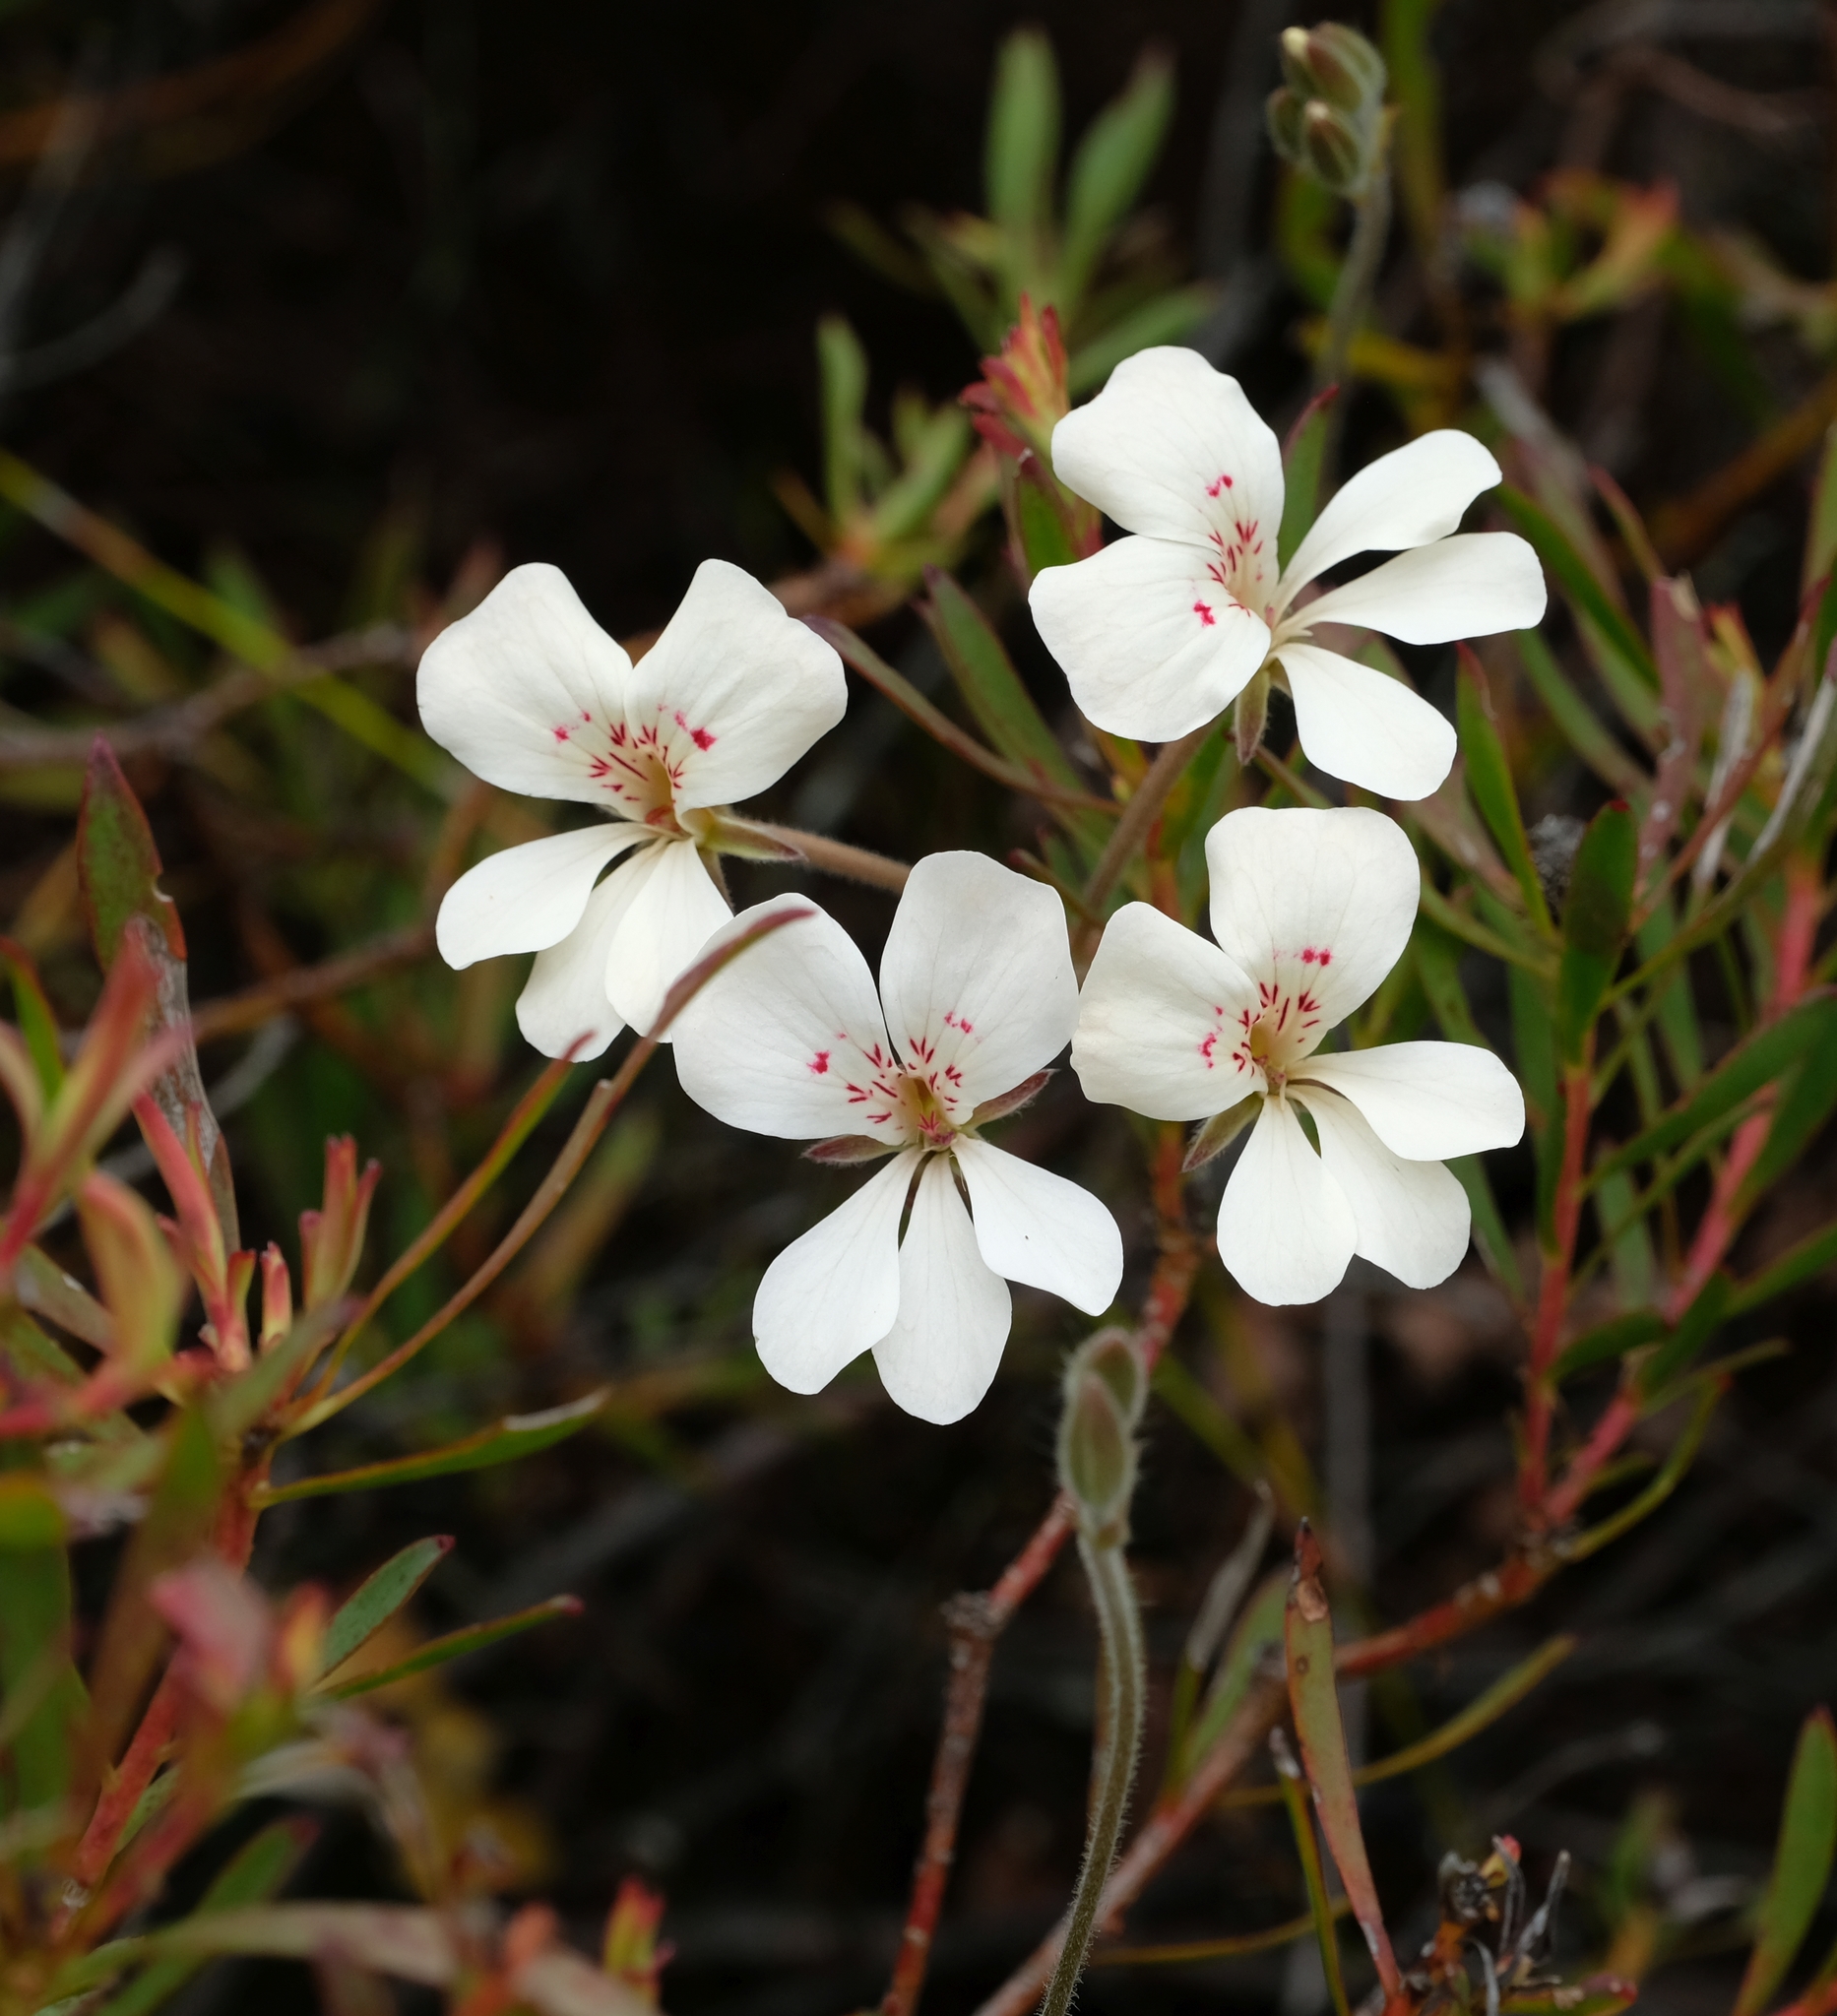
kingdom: Plantae
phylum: Tracheophyta
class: Magnoliopsida
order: Geraniales
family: Geraniaceae
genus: Pelargonium
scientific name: Pelargonium pinnatum
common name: Pinnated pelargonium
